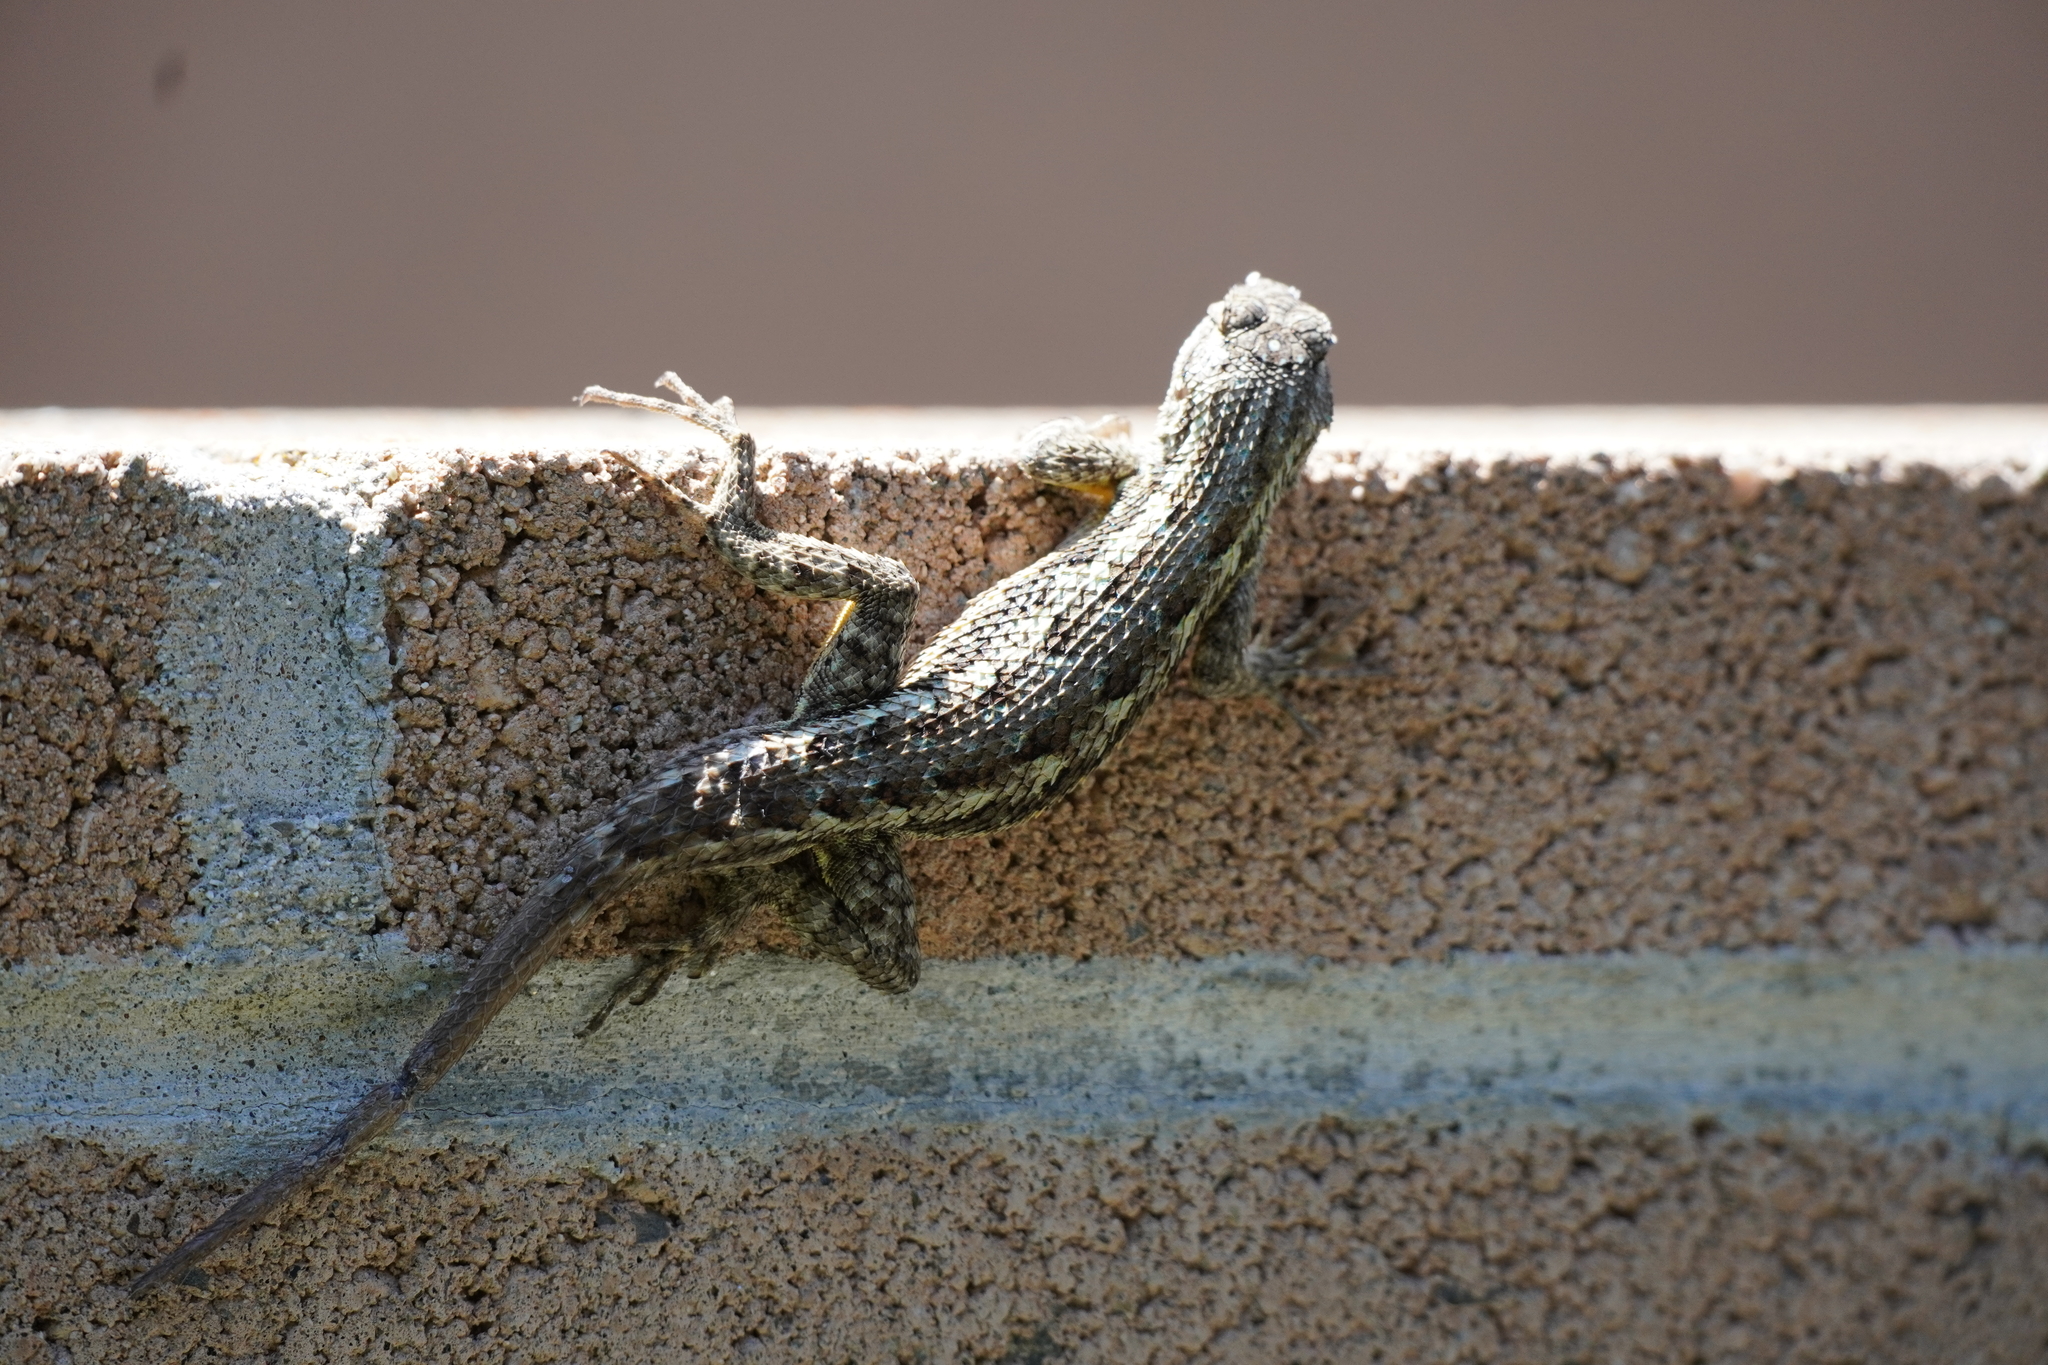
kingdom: Animalia
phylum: Chordata
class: Squamata
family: Phrynosomatidae
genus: Sceloporus
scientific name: Sceloporus occidentalis
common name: Western fence lizard
